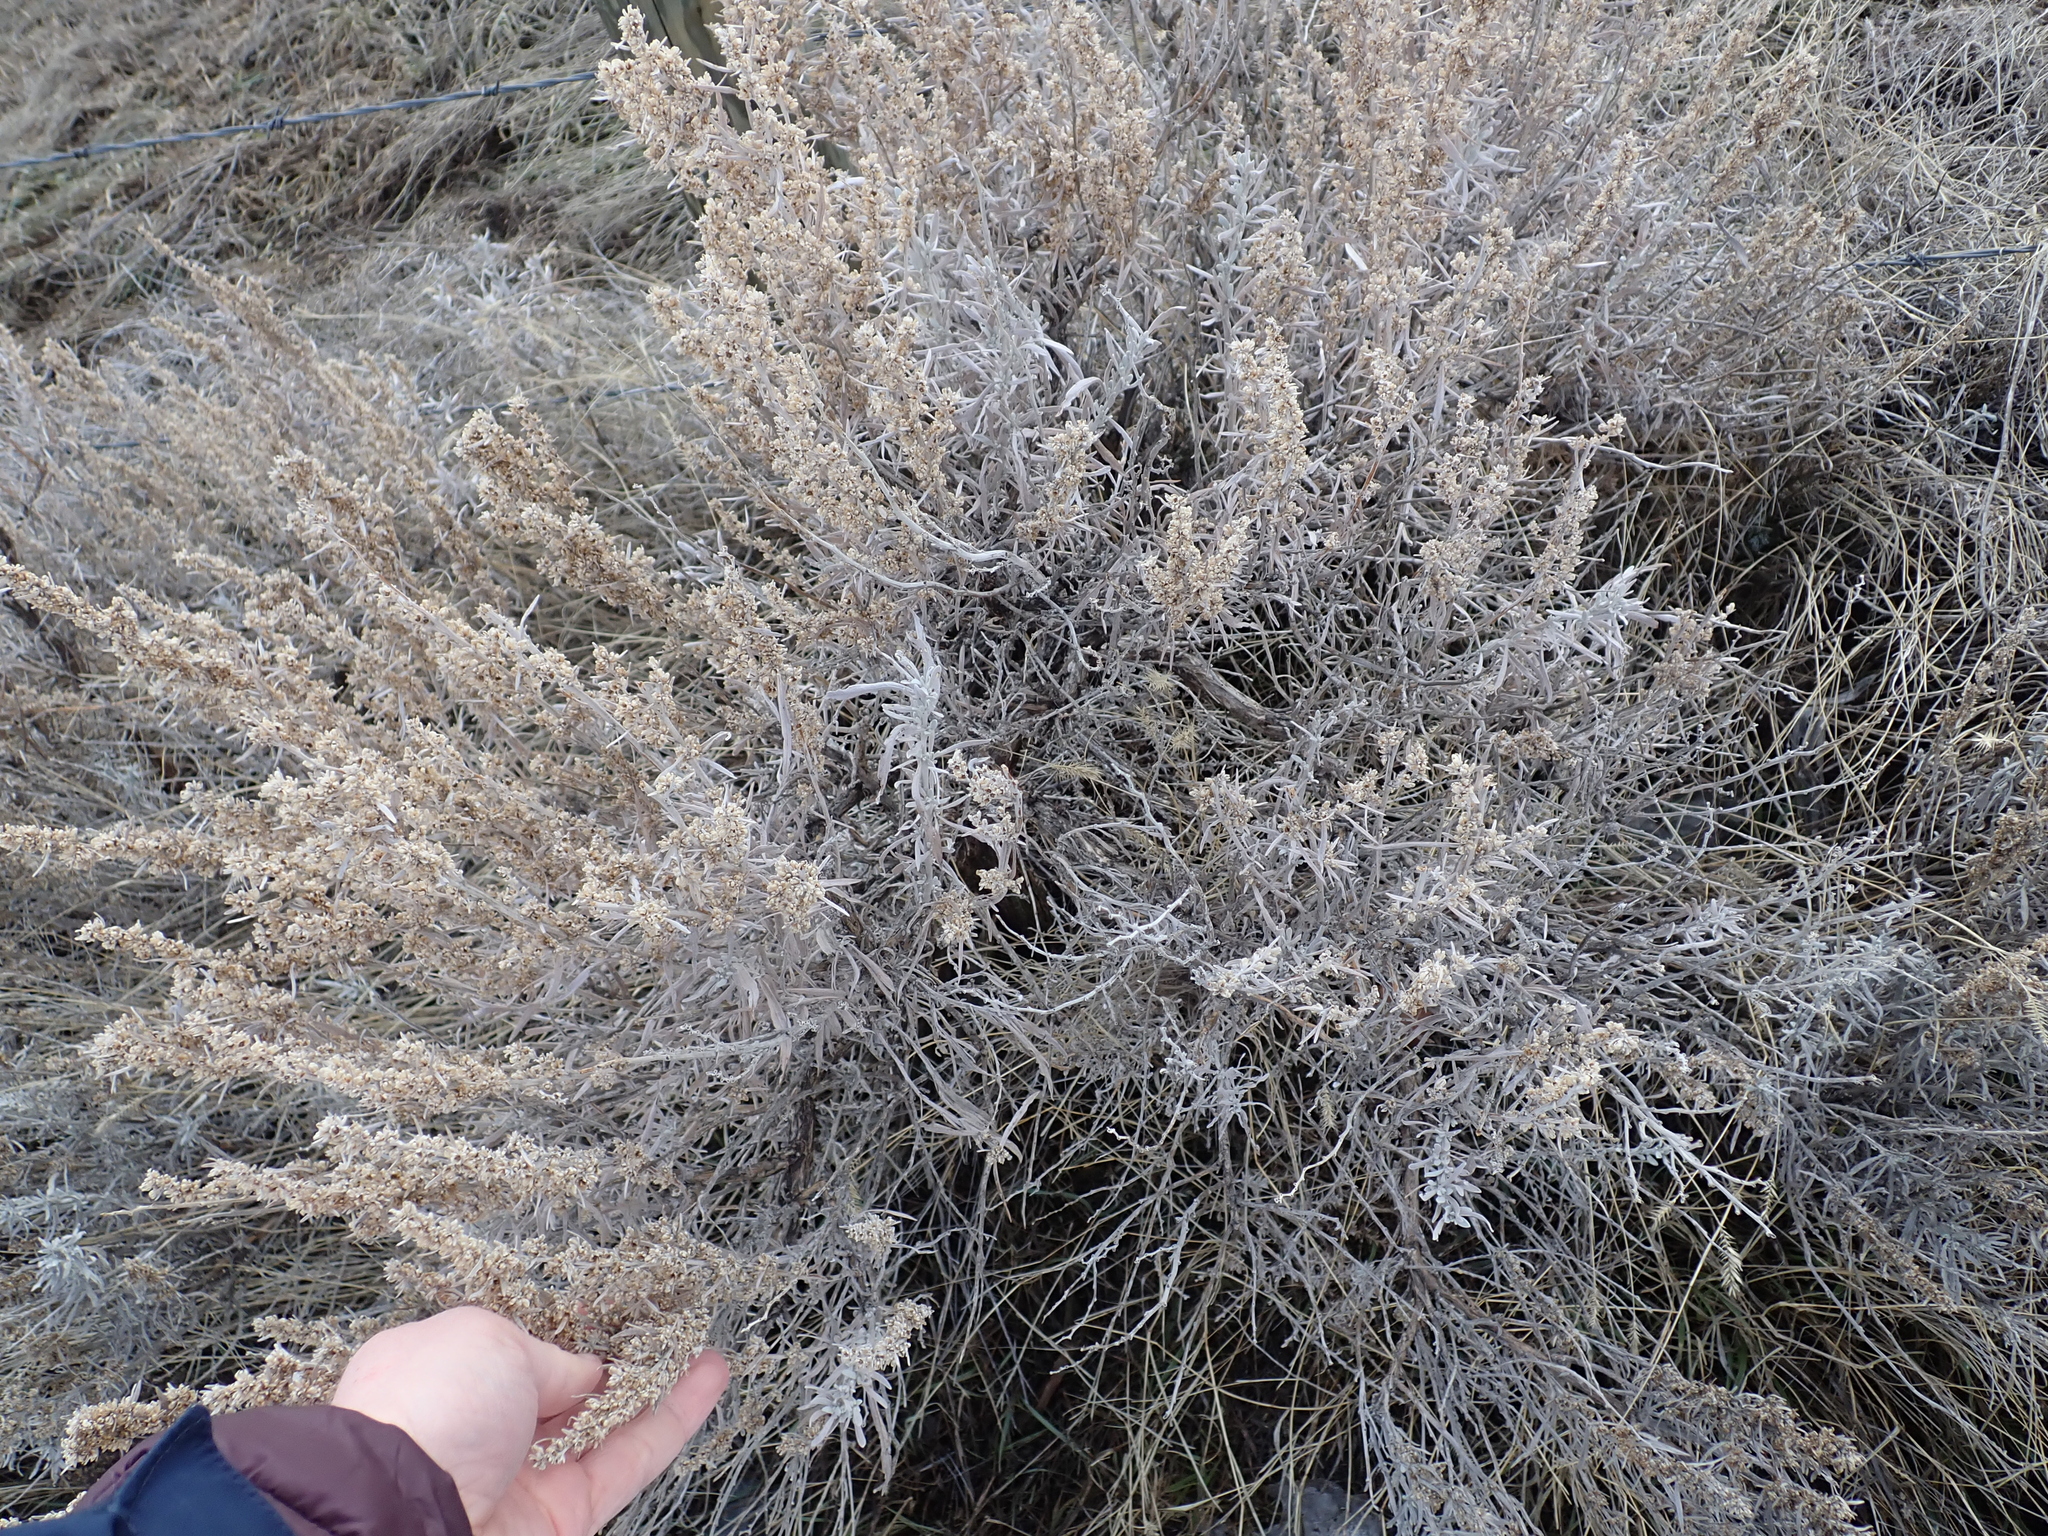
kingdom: Plantae
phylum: Tracheophyta
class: Magnoliopsida
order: Asterales
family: Asteraceae
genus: Artemisia
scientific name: Artemisia cana
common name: Silver sagebrush
